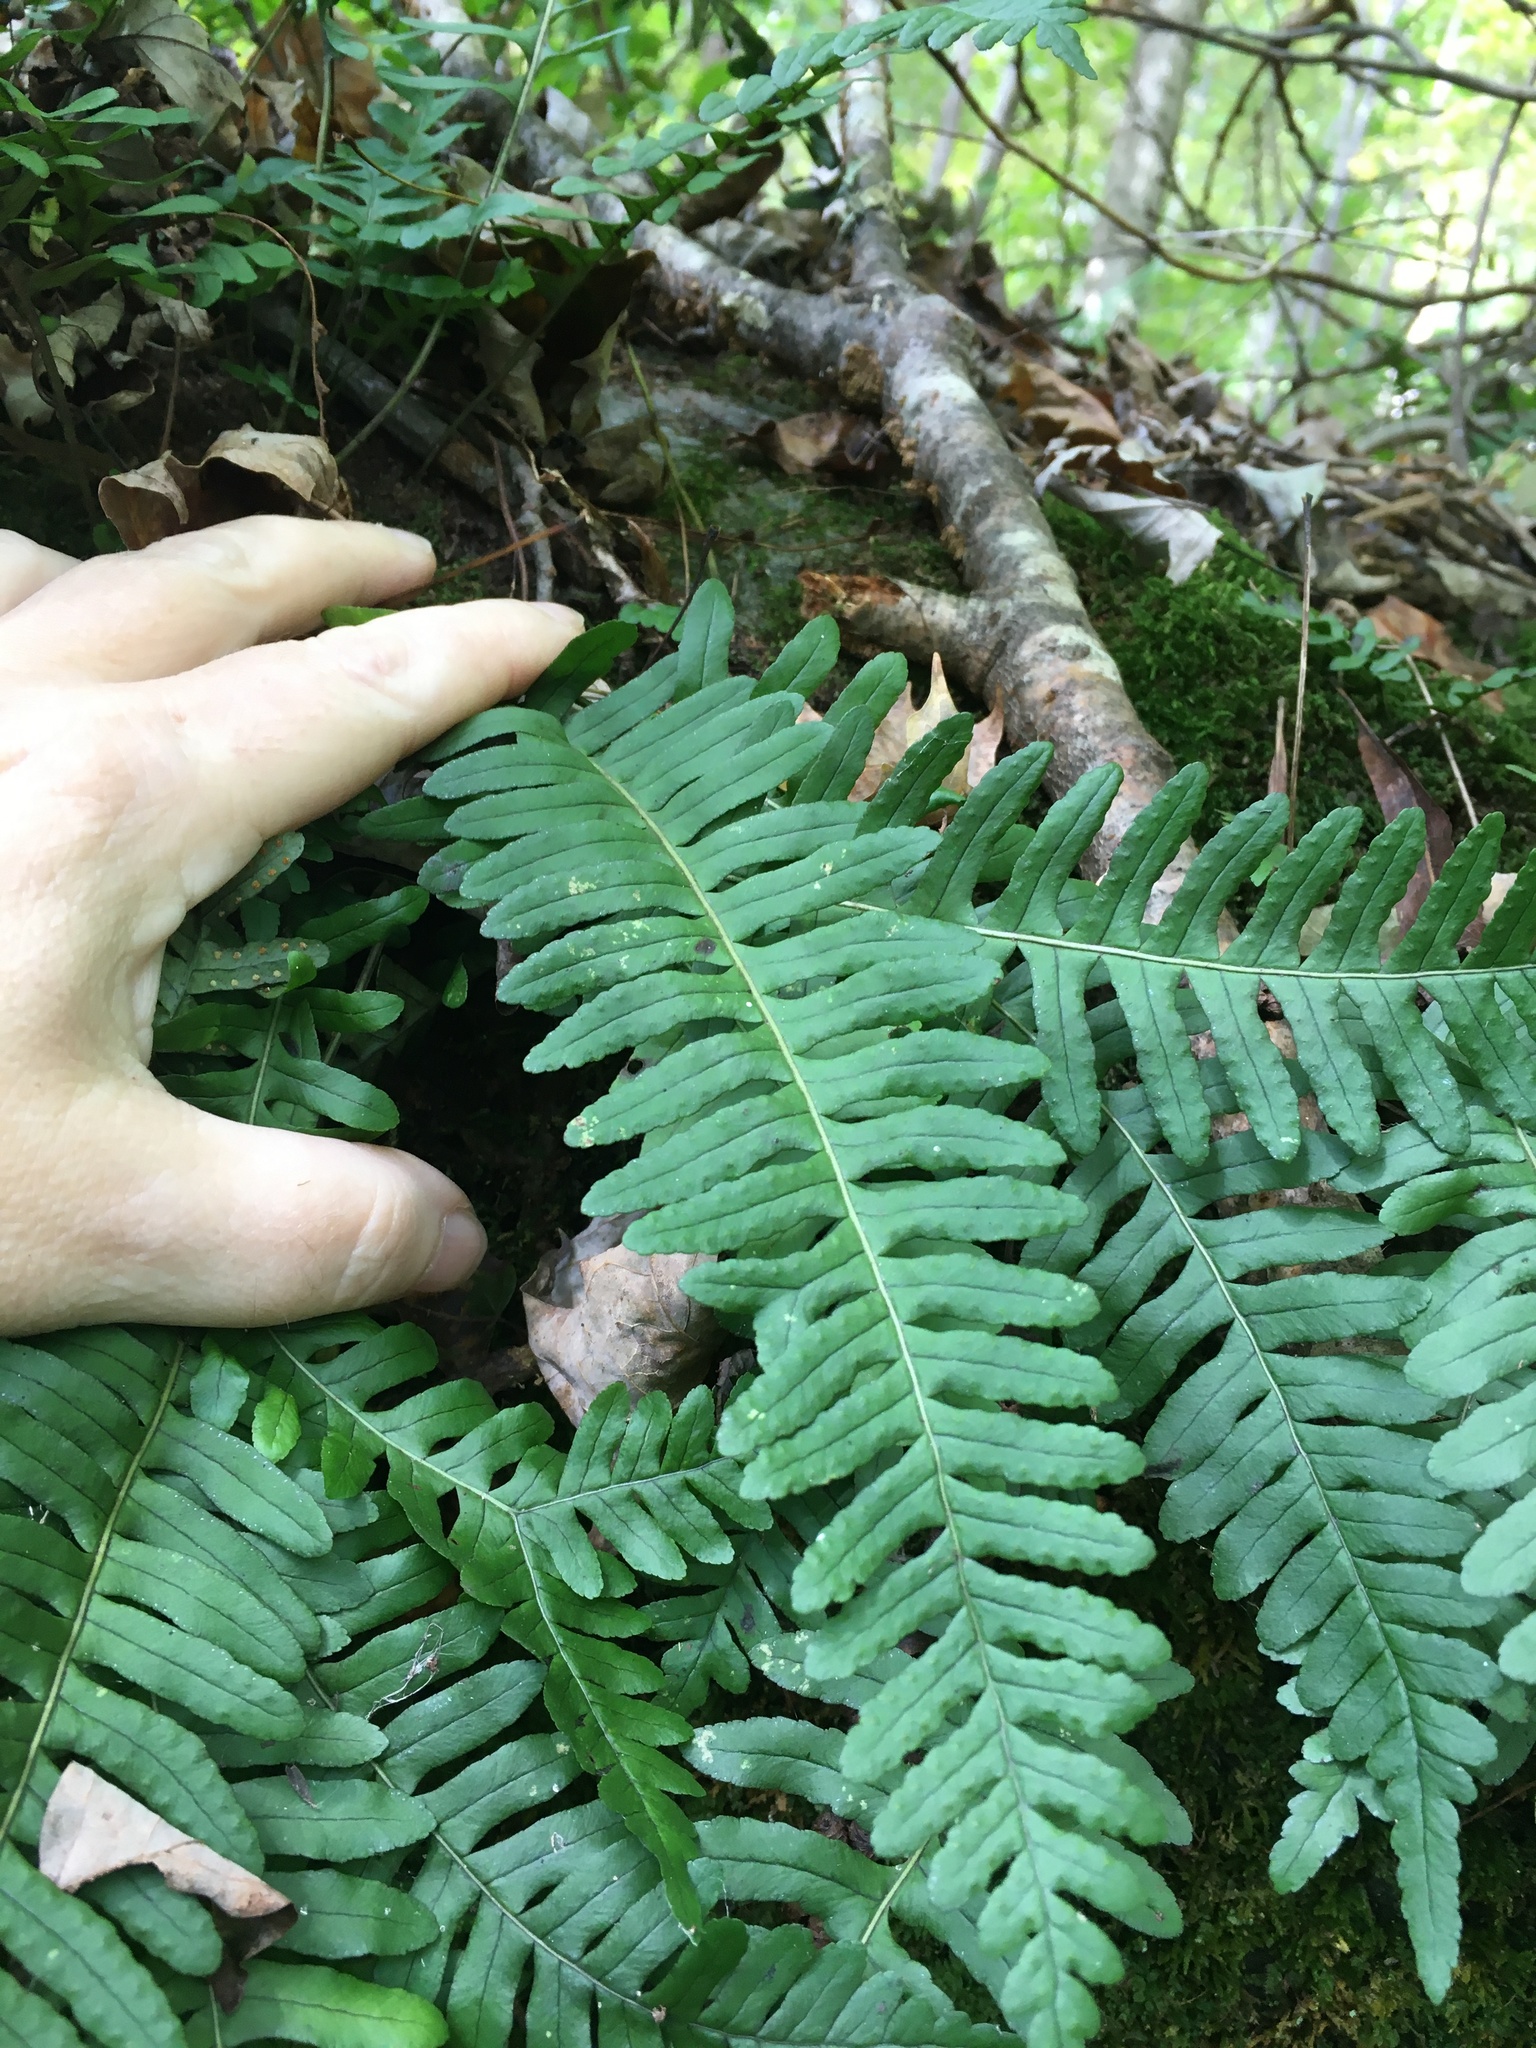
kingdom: Plantae
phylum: Tracheophyta
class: Polypodiopsida
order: Polypodiales
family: Polypodiaceae
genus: Polypodium
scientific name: Polypodium virginianum
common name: American wall fern
